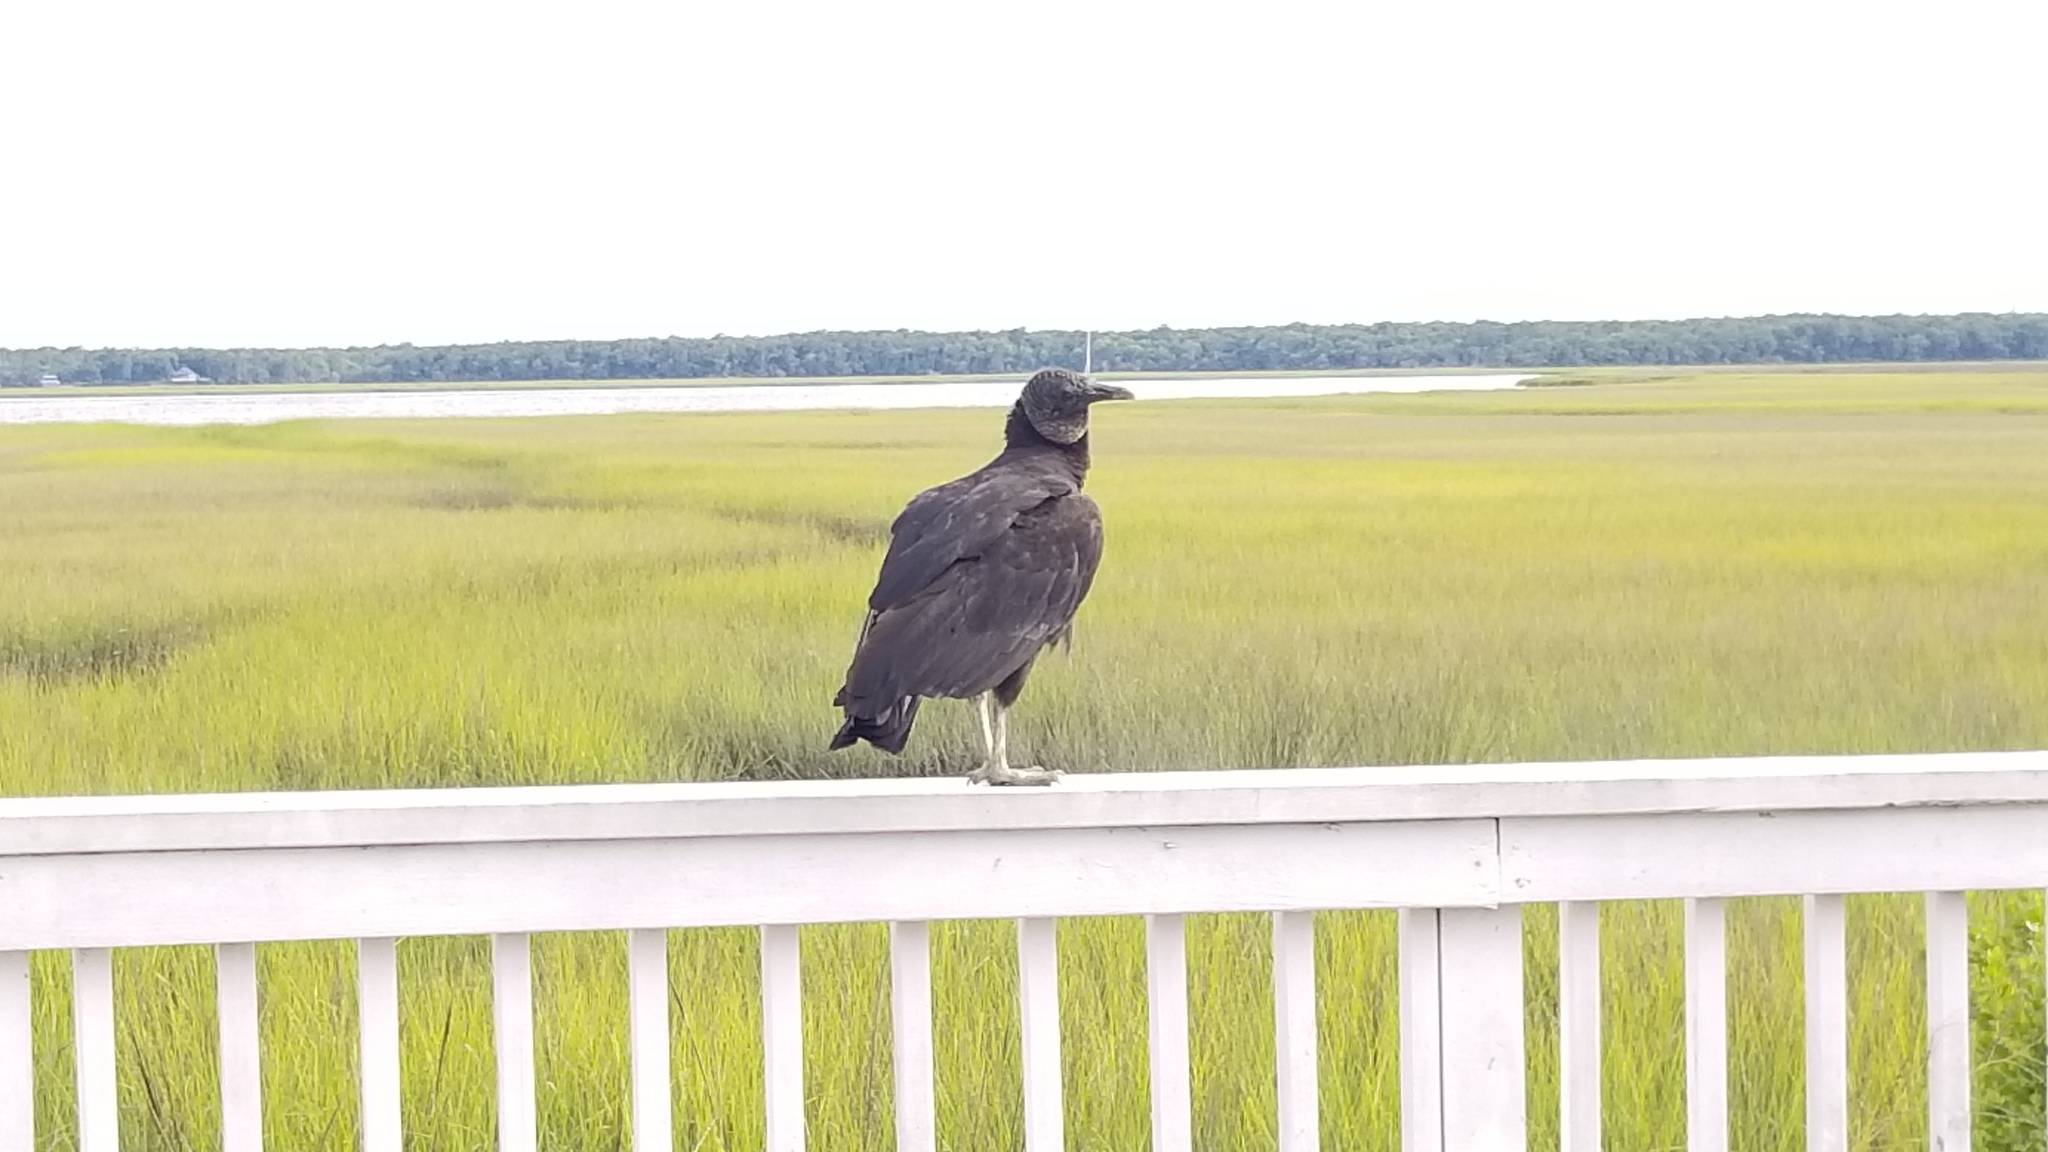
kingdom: Animalia
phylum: Chordata
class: Aves
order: Accipitriformes
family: Cathartidae
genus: Coragyps
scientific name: Coragyps atratus
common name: Black vulture
